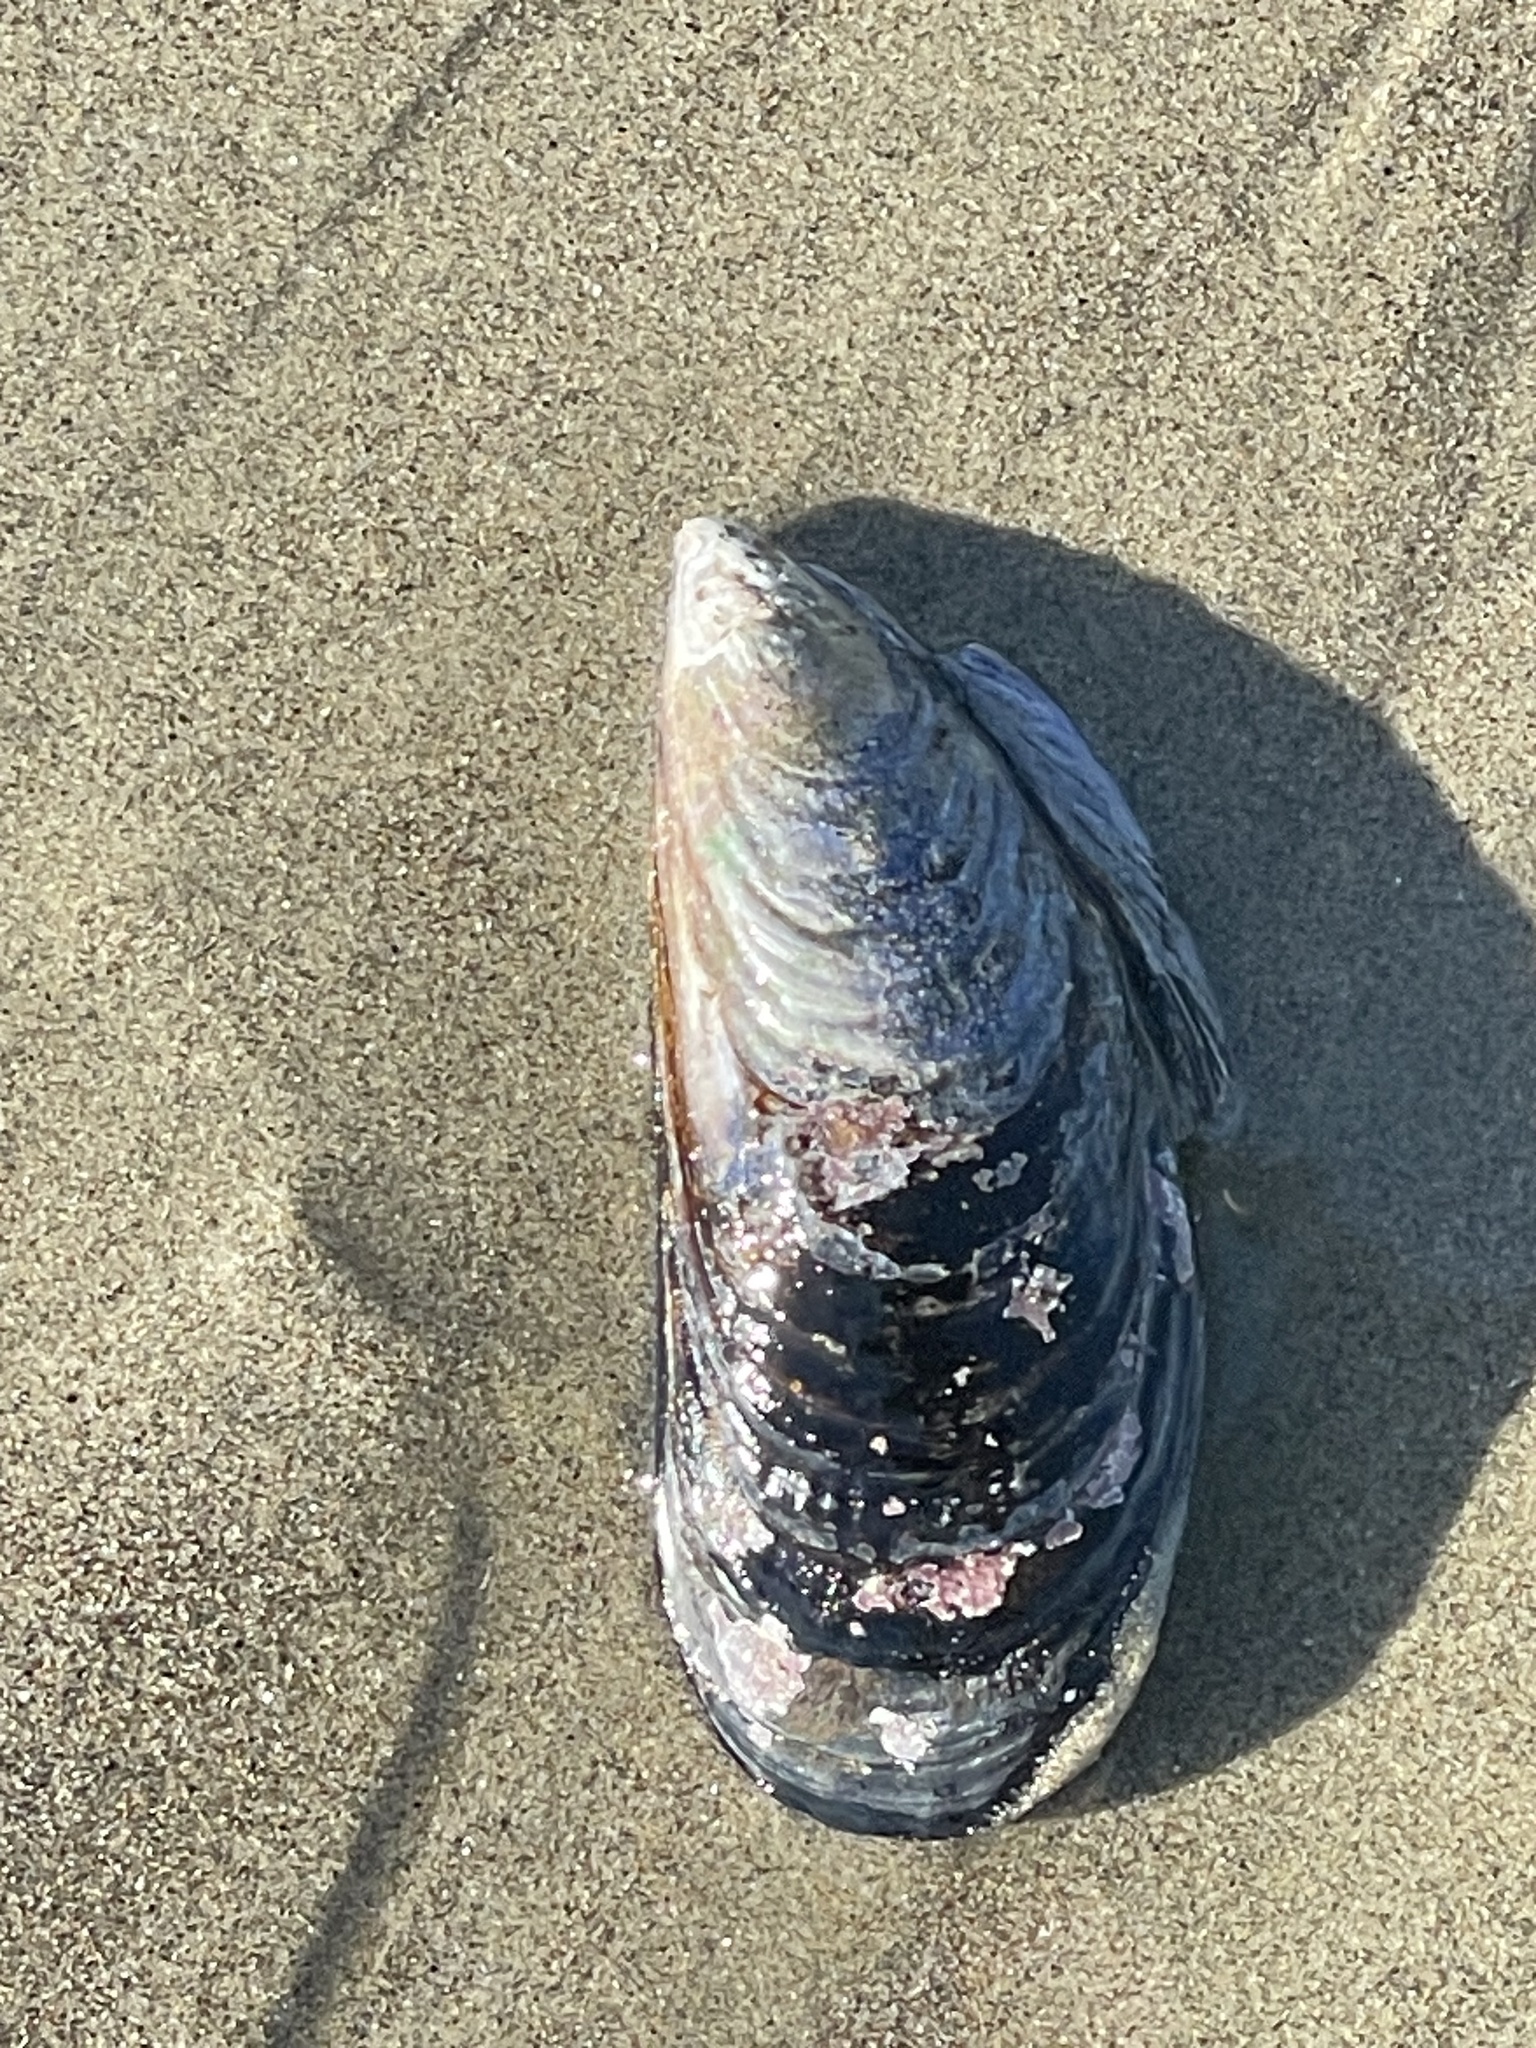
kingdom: Animalia
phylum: Mollusca
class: Bivalvia
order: Mytilida
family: Mytilidae
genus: Mytilus
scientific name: Mytilus californianus
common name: California mussel
